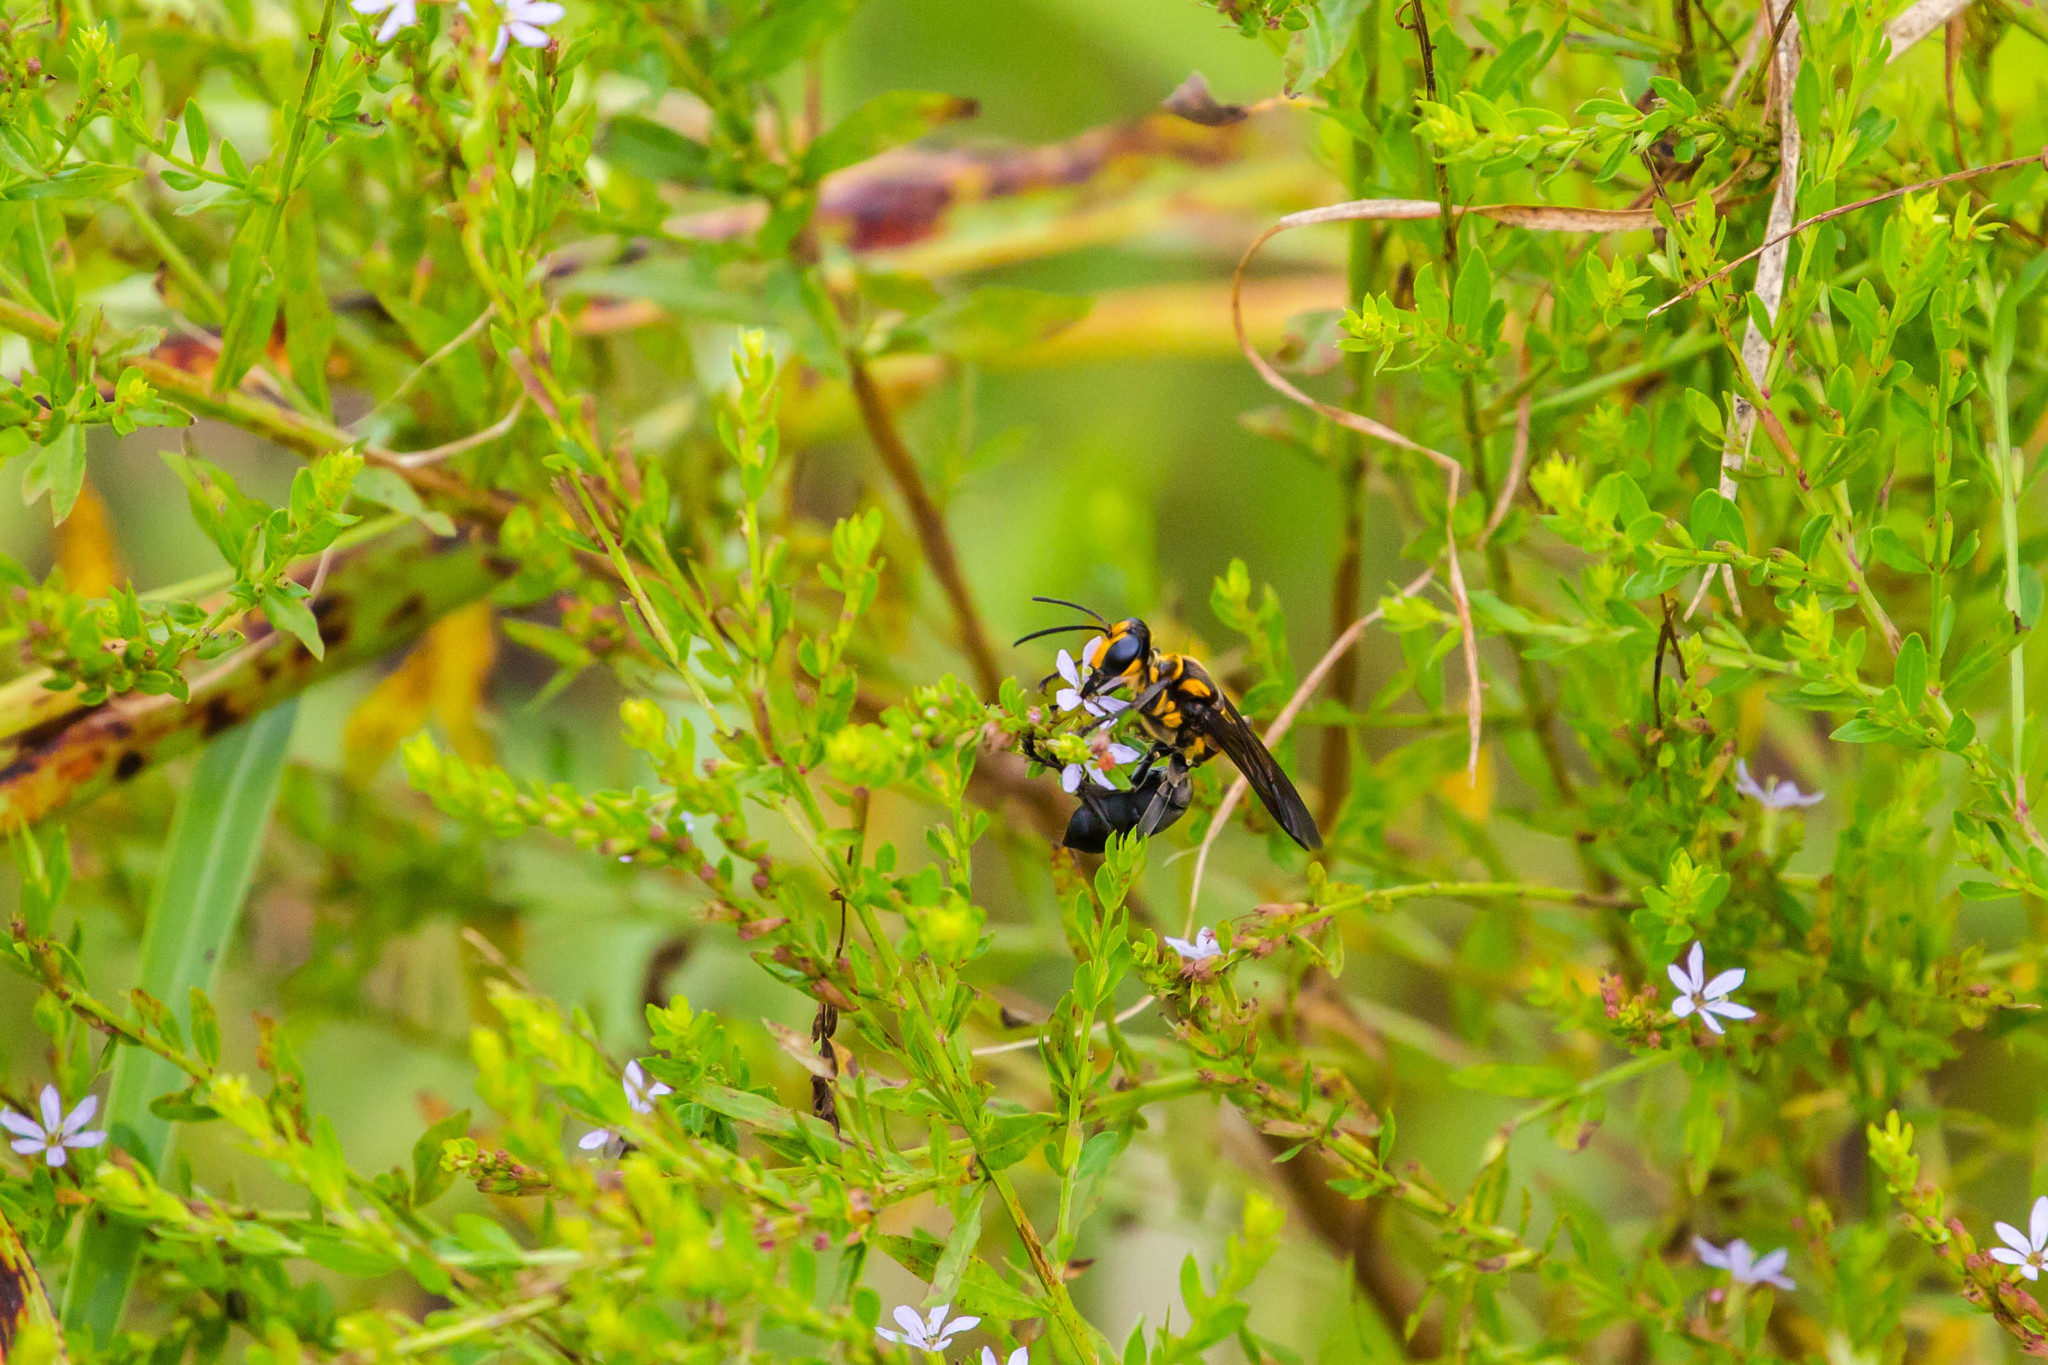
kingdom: Animalia
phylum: Arthropoda
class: Insecta
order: Hymenoptera
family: Sphecidae
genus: Sphex
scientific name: Sphex habenus
